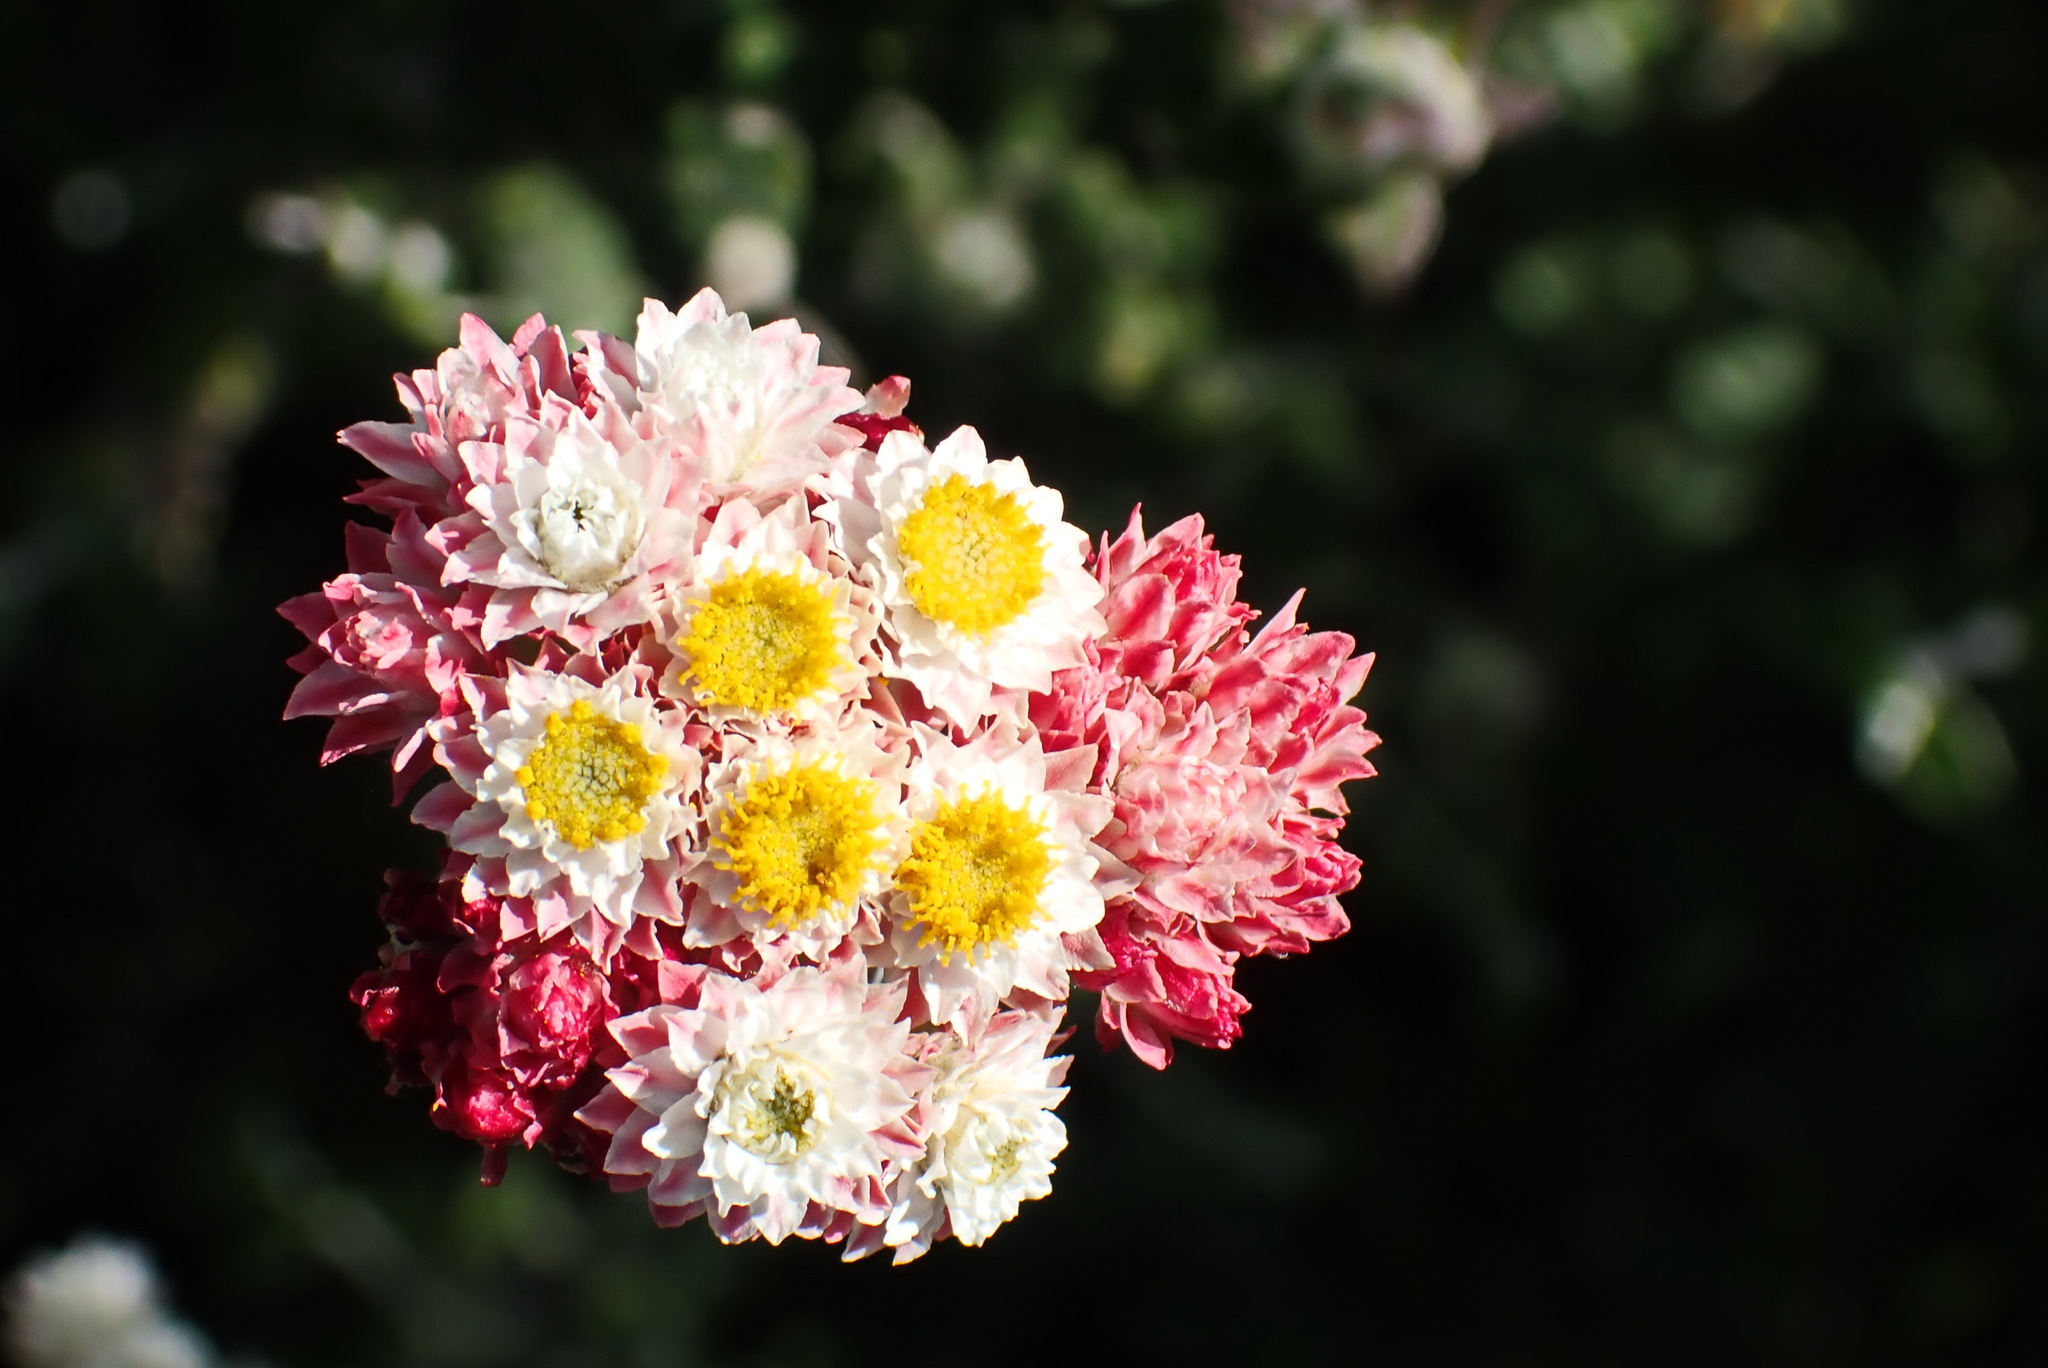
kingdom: Plantae
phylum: Tracheophyta
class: Magnoliopsida
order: Asterales
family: Asteraceae
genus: Helichrysum
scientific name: Helichrysum felinum
